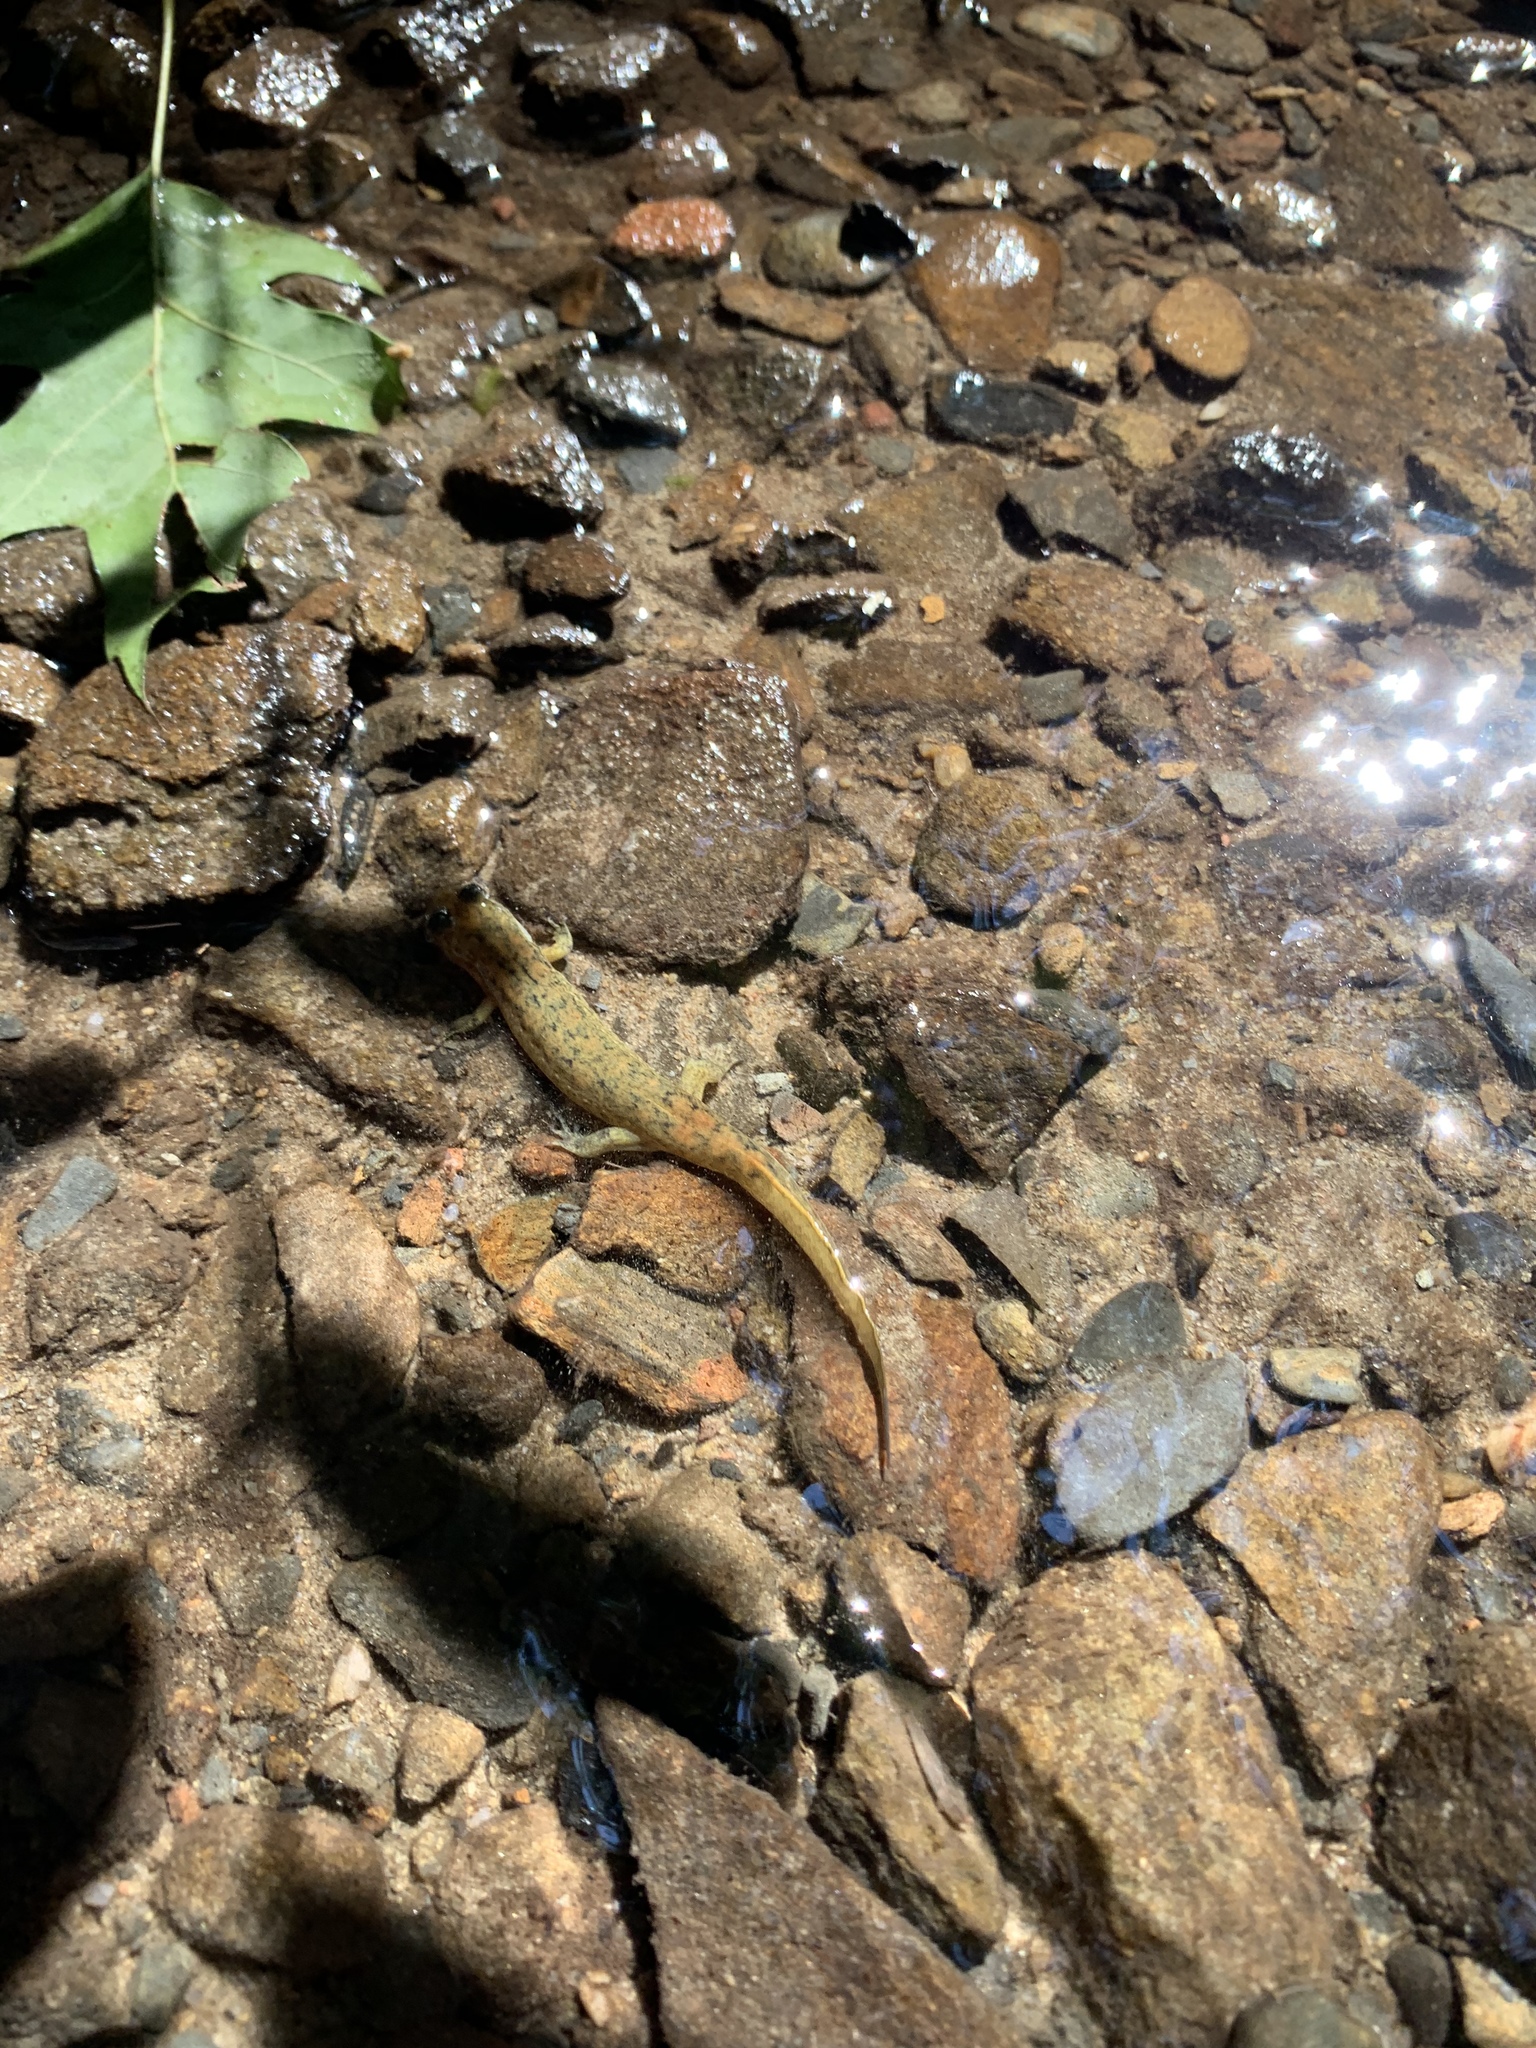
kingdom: Animalia
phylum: Chordata
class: Amphibia
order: Caudata
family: Plethodontidae
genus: Desmognathus
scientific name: Desmognathus
